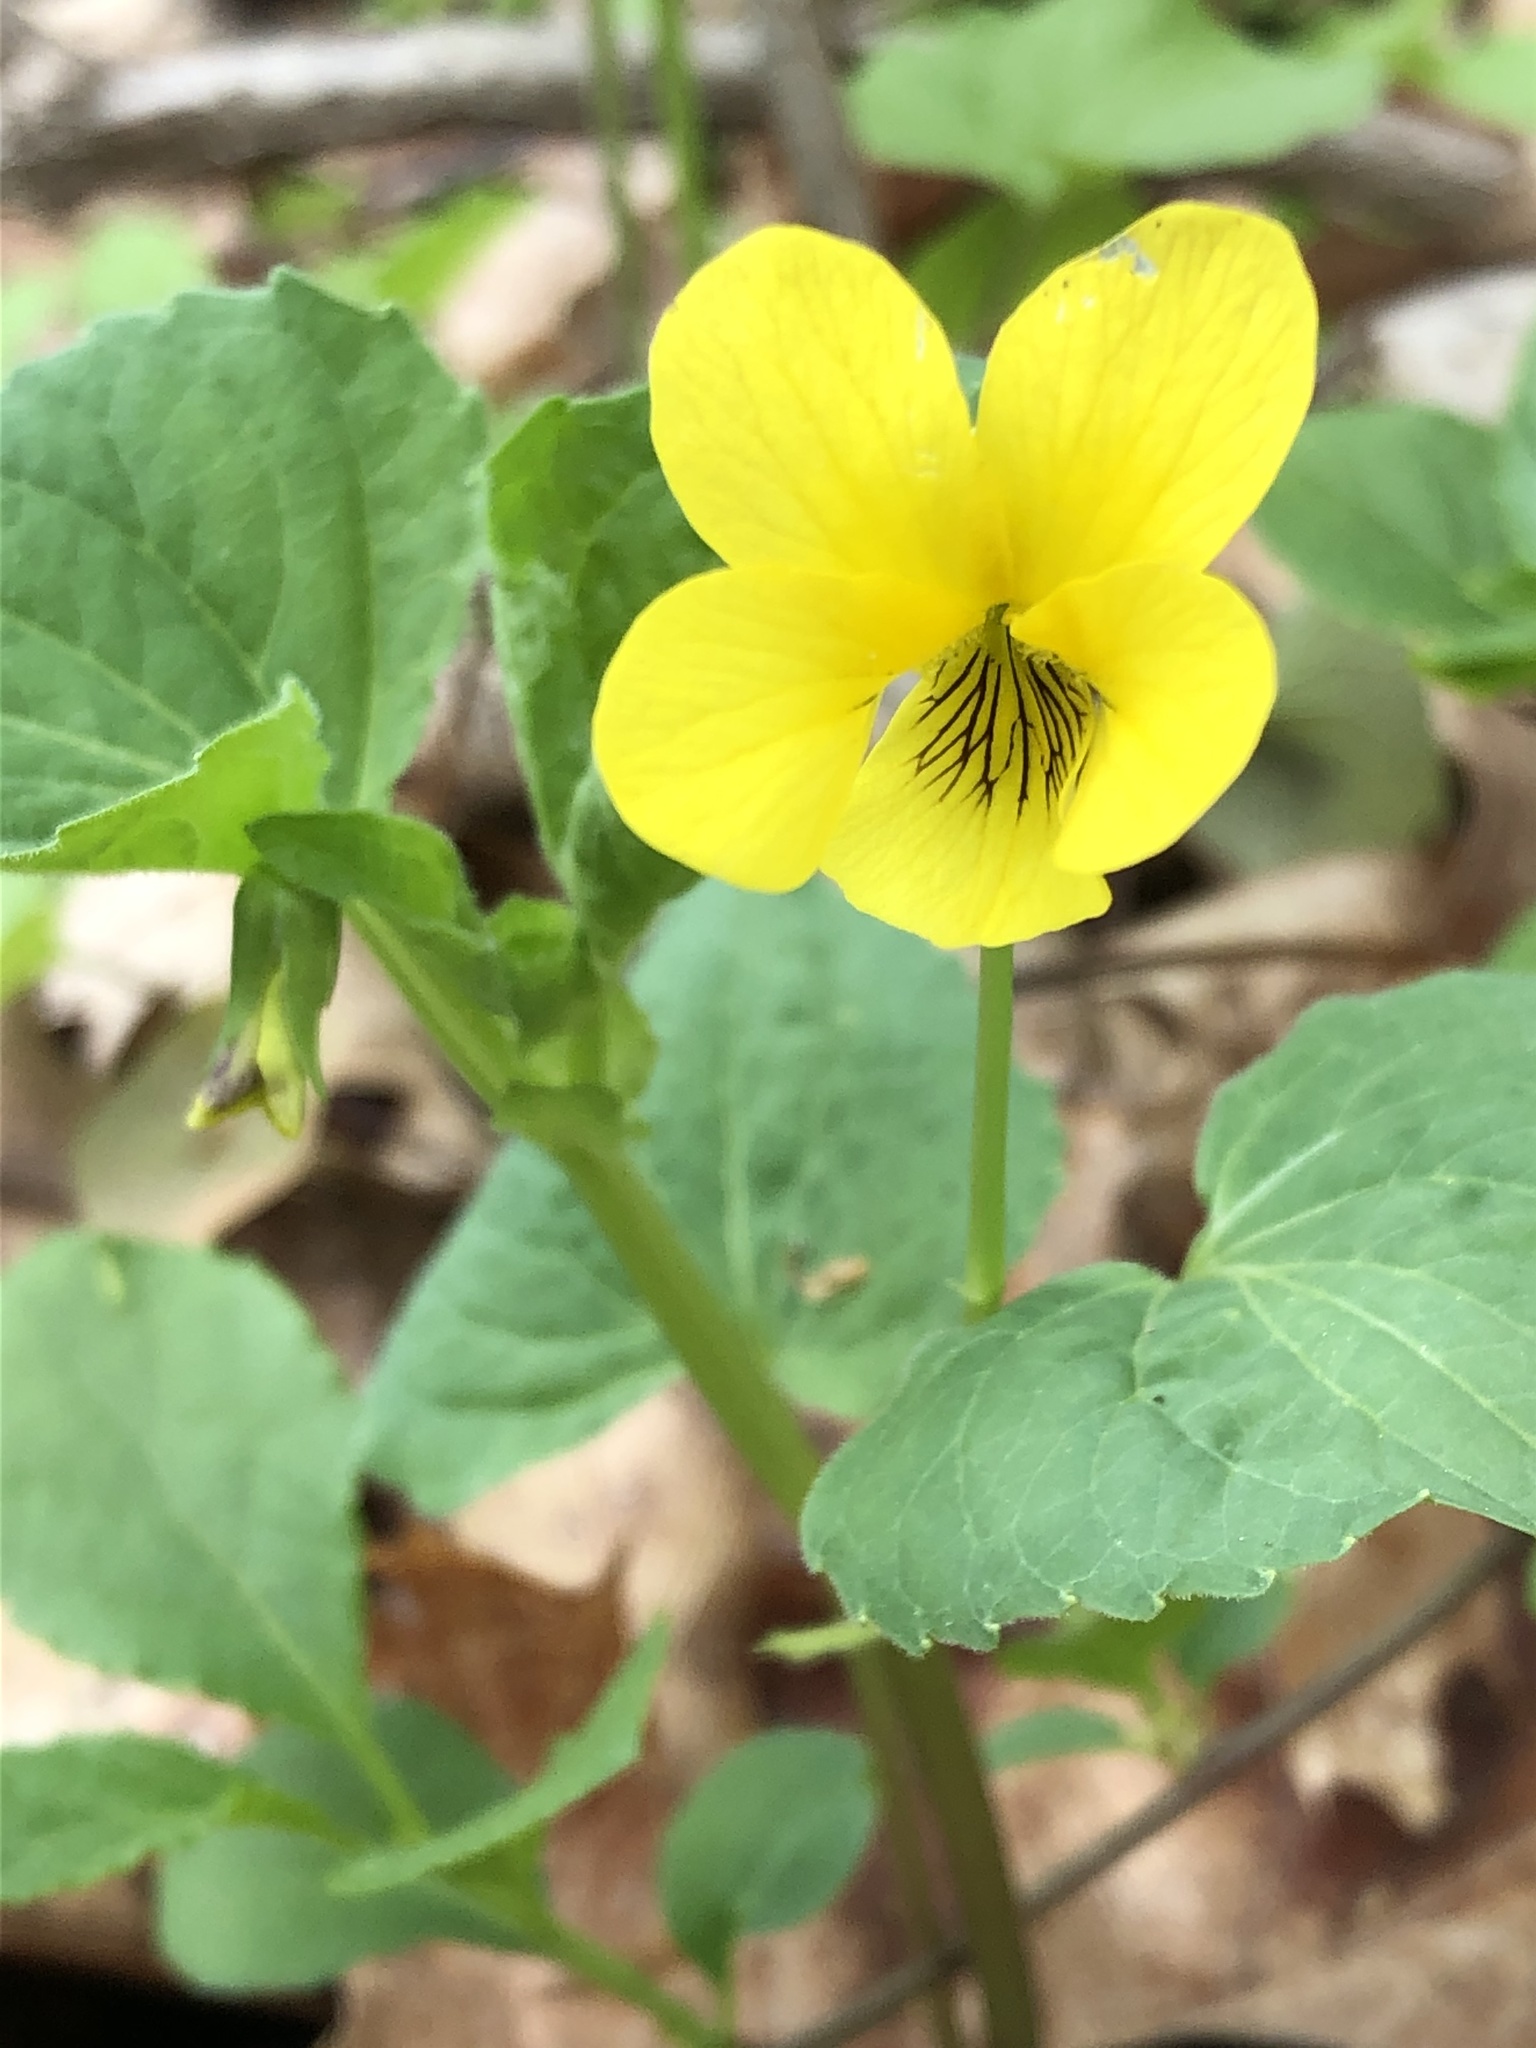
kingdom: Plantae
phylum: Tracheophyta
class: Magnoliopsida
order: Malpighiales
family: Violaceae
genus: Viola
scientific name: Viola eriocarpa
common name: Smooth yellow violet
